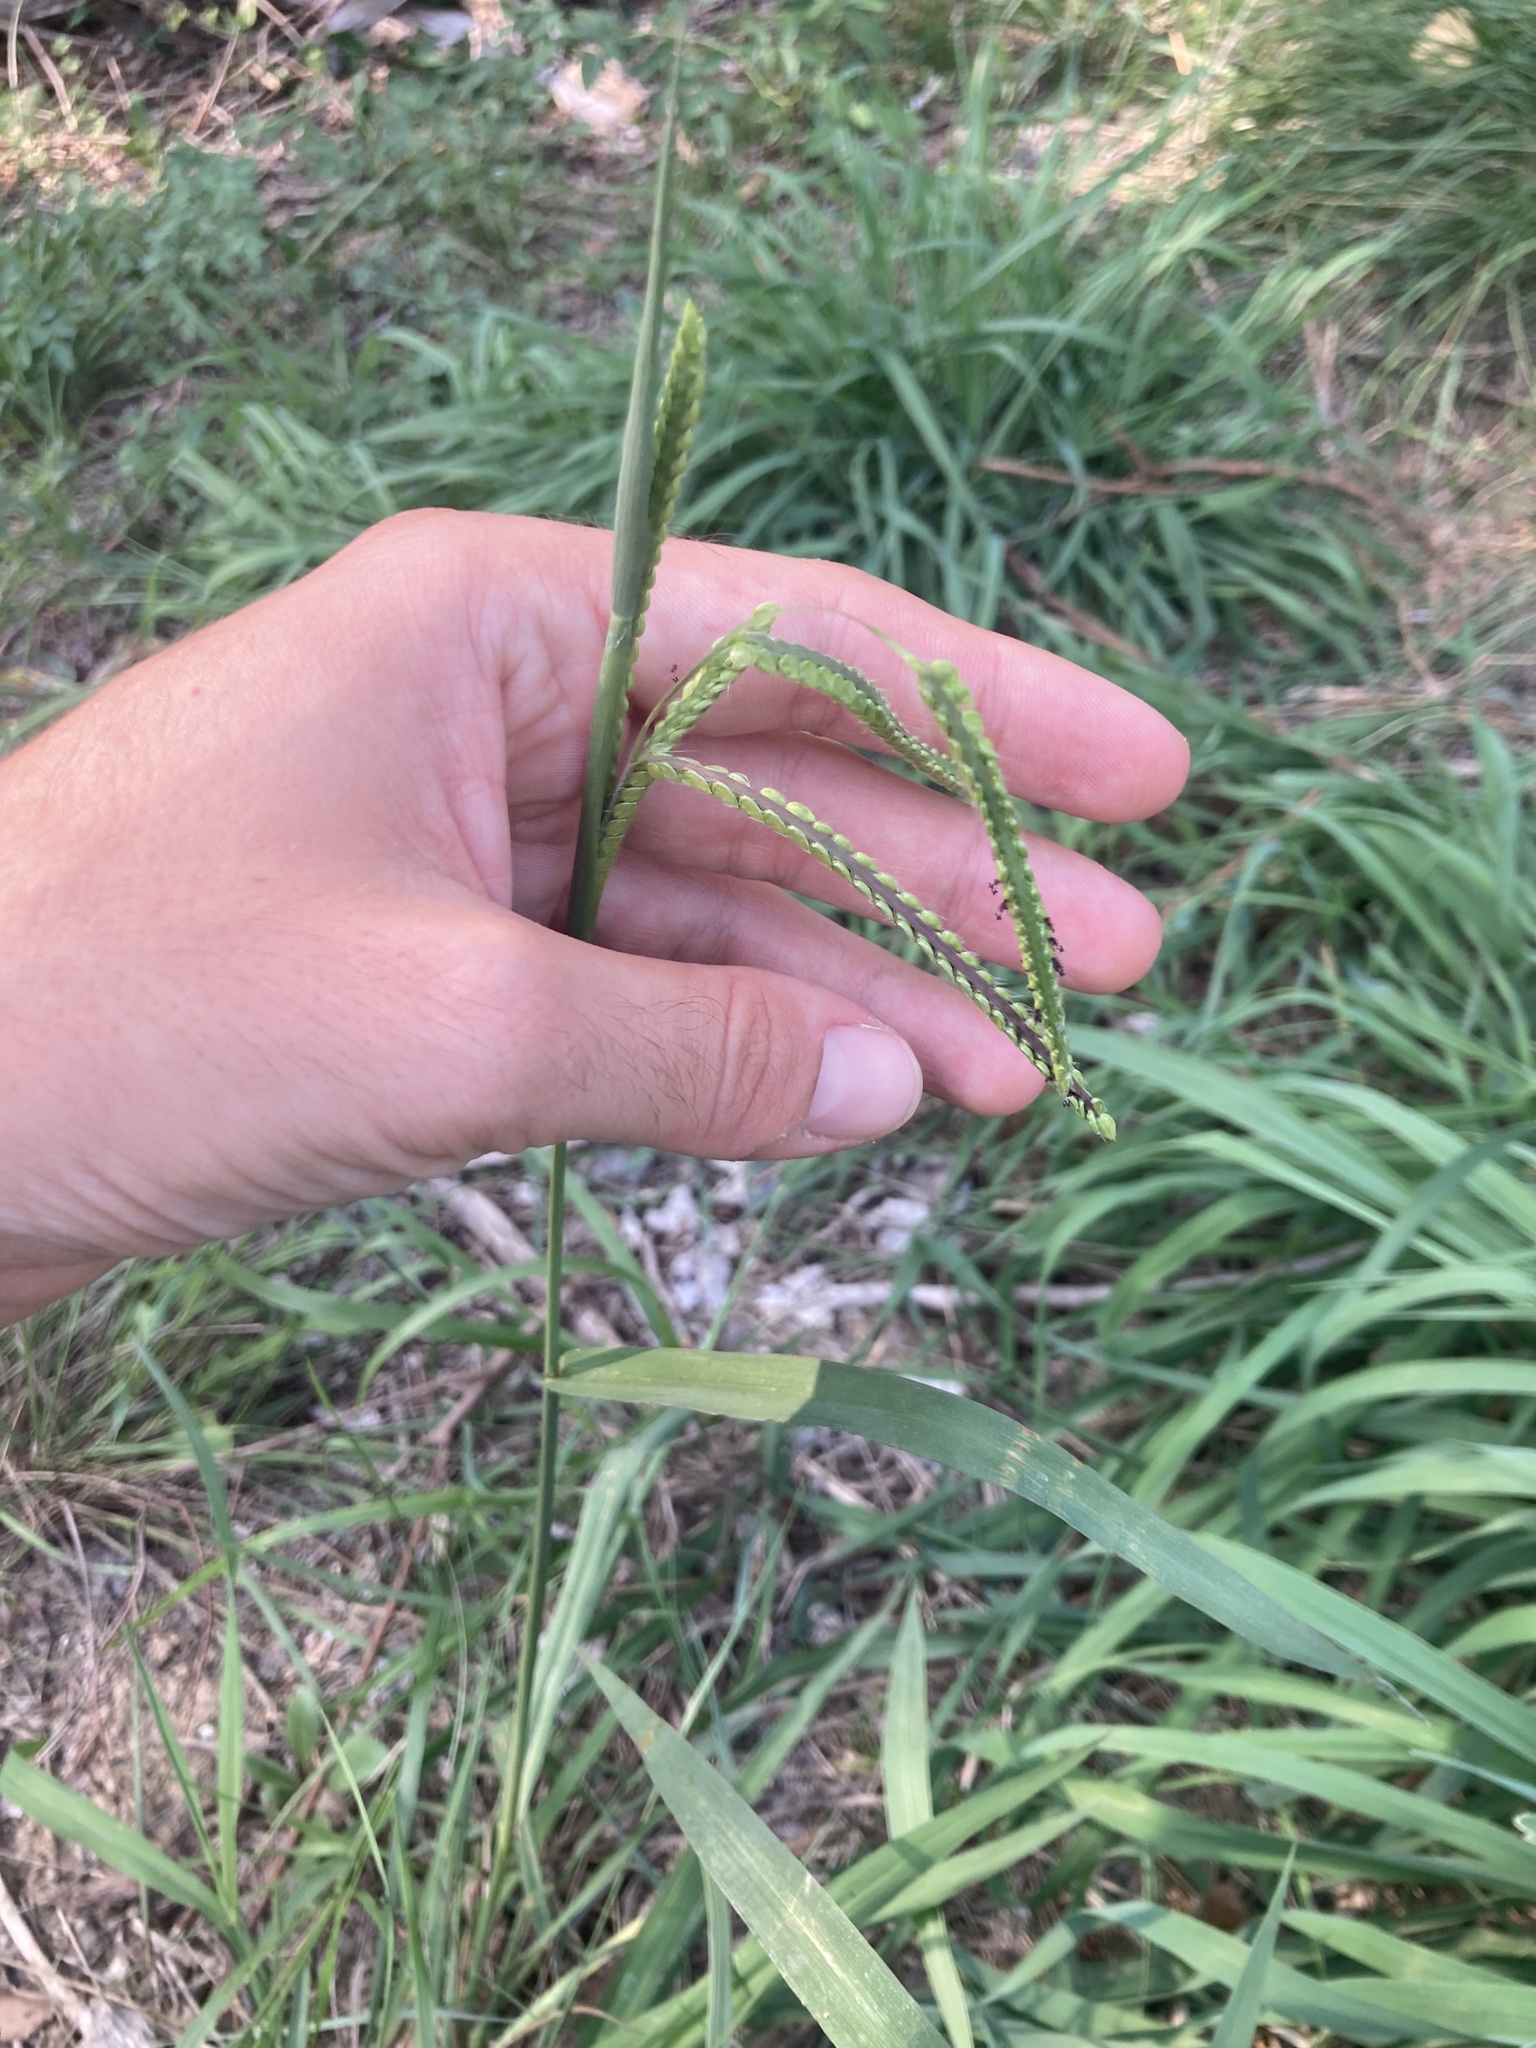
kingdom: Plantae
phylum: Tracheophyta
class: Liliopsida
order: Poales
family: Poaceae
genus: Paspalum
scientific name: Paspalum dilatatum
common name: Dallisgrass
